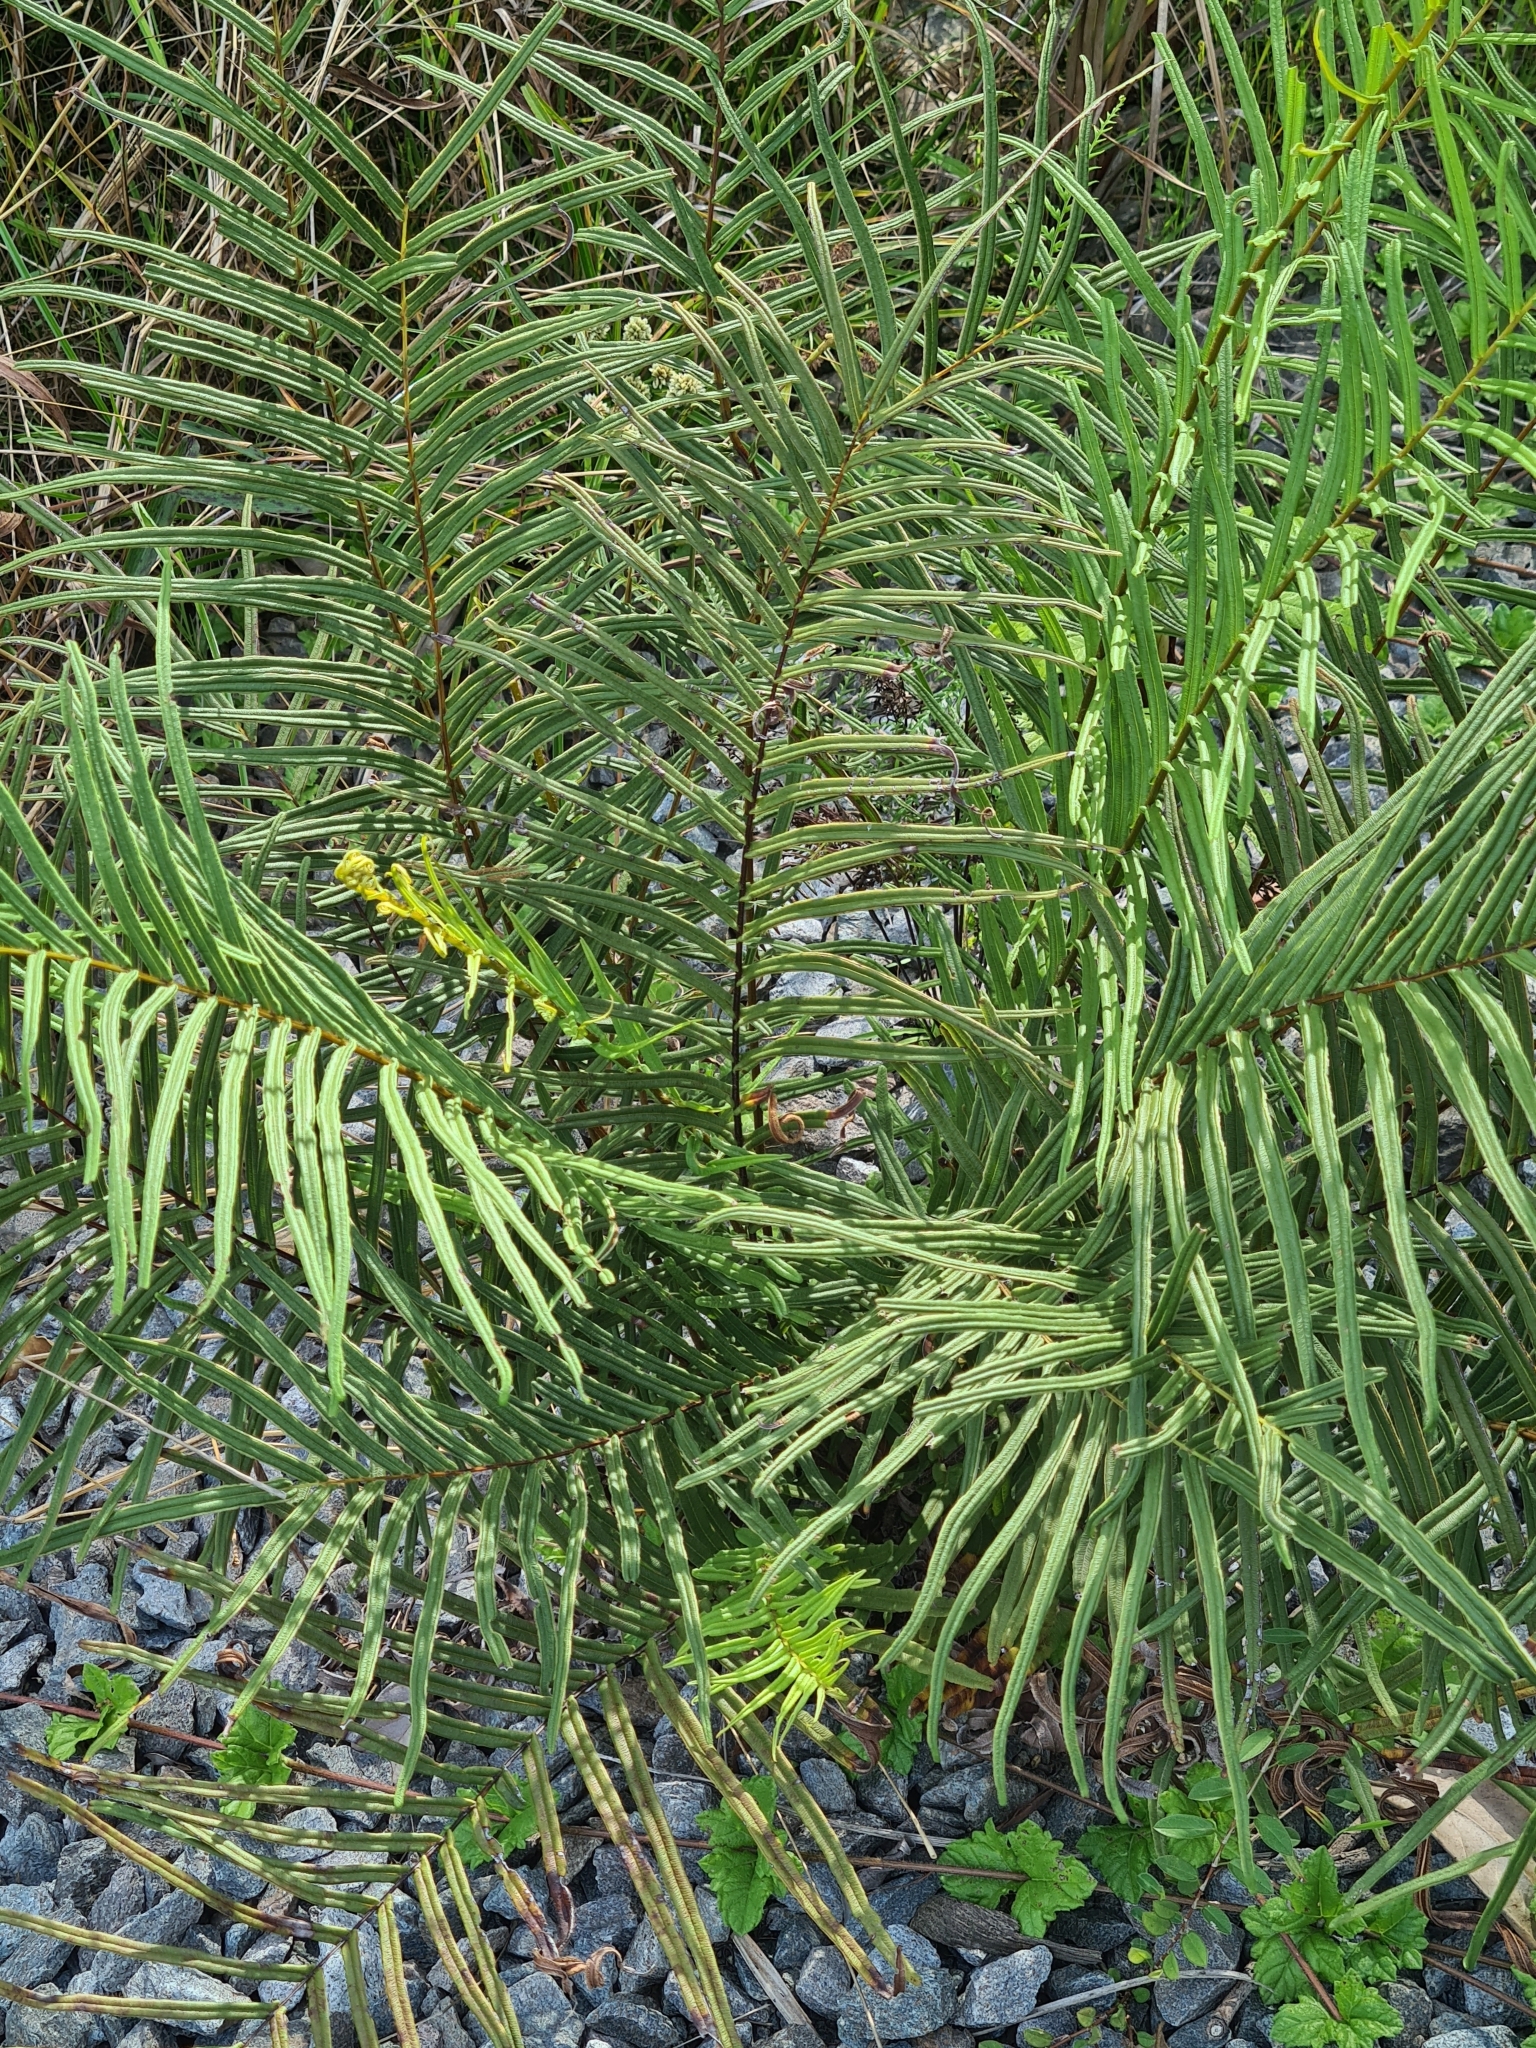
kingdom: Plantae
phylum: Tracheophyta
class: Polypodiopsida
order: Polypodiales
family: Pteridaceae
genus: Pteris
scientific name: Pteris vittata
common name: Ladder brake
